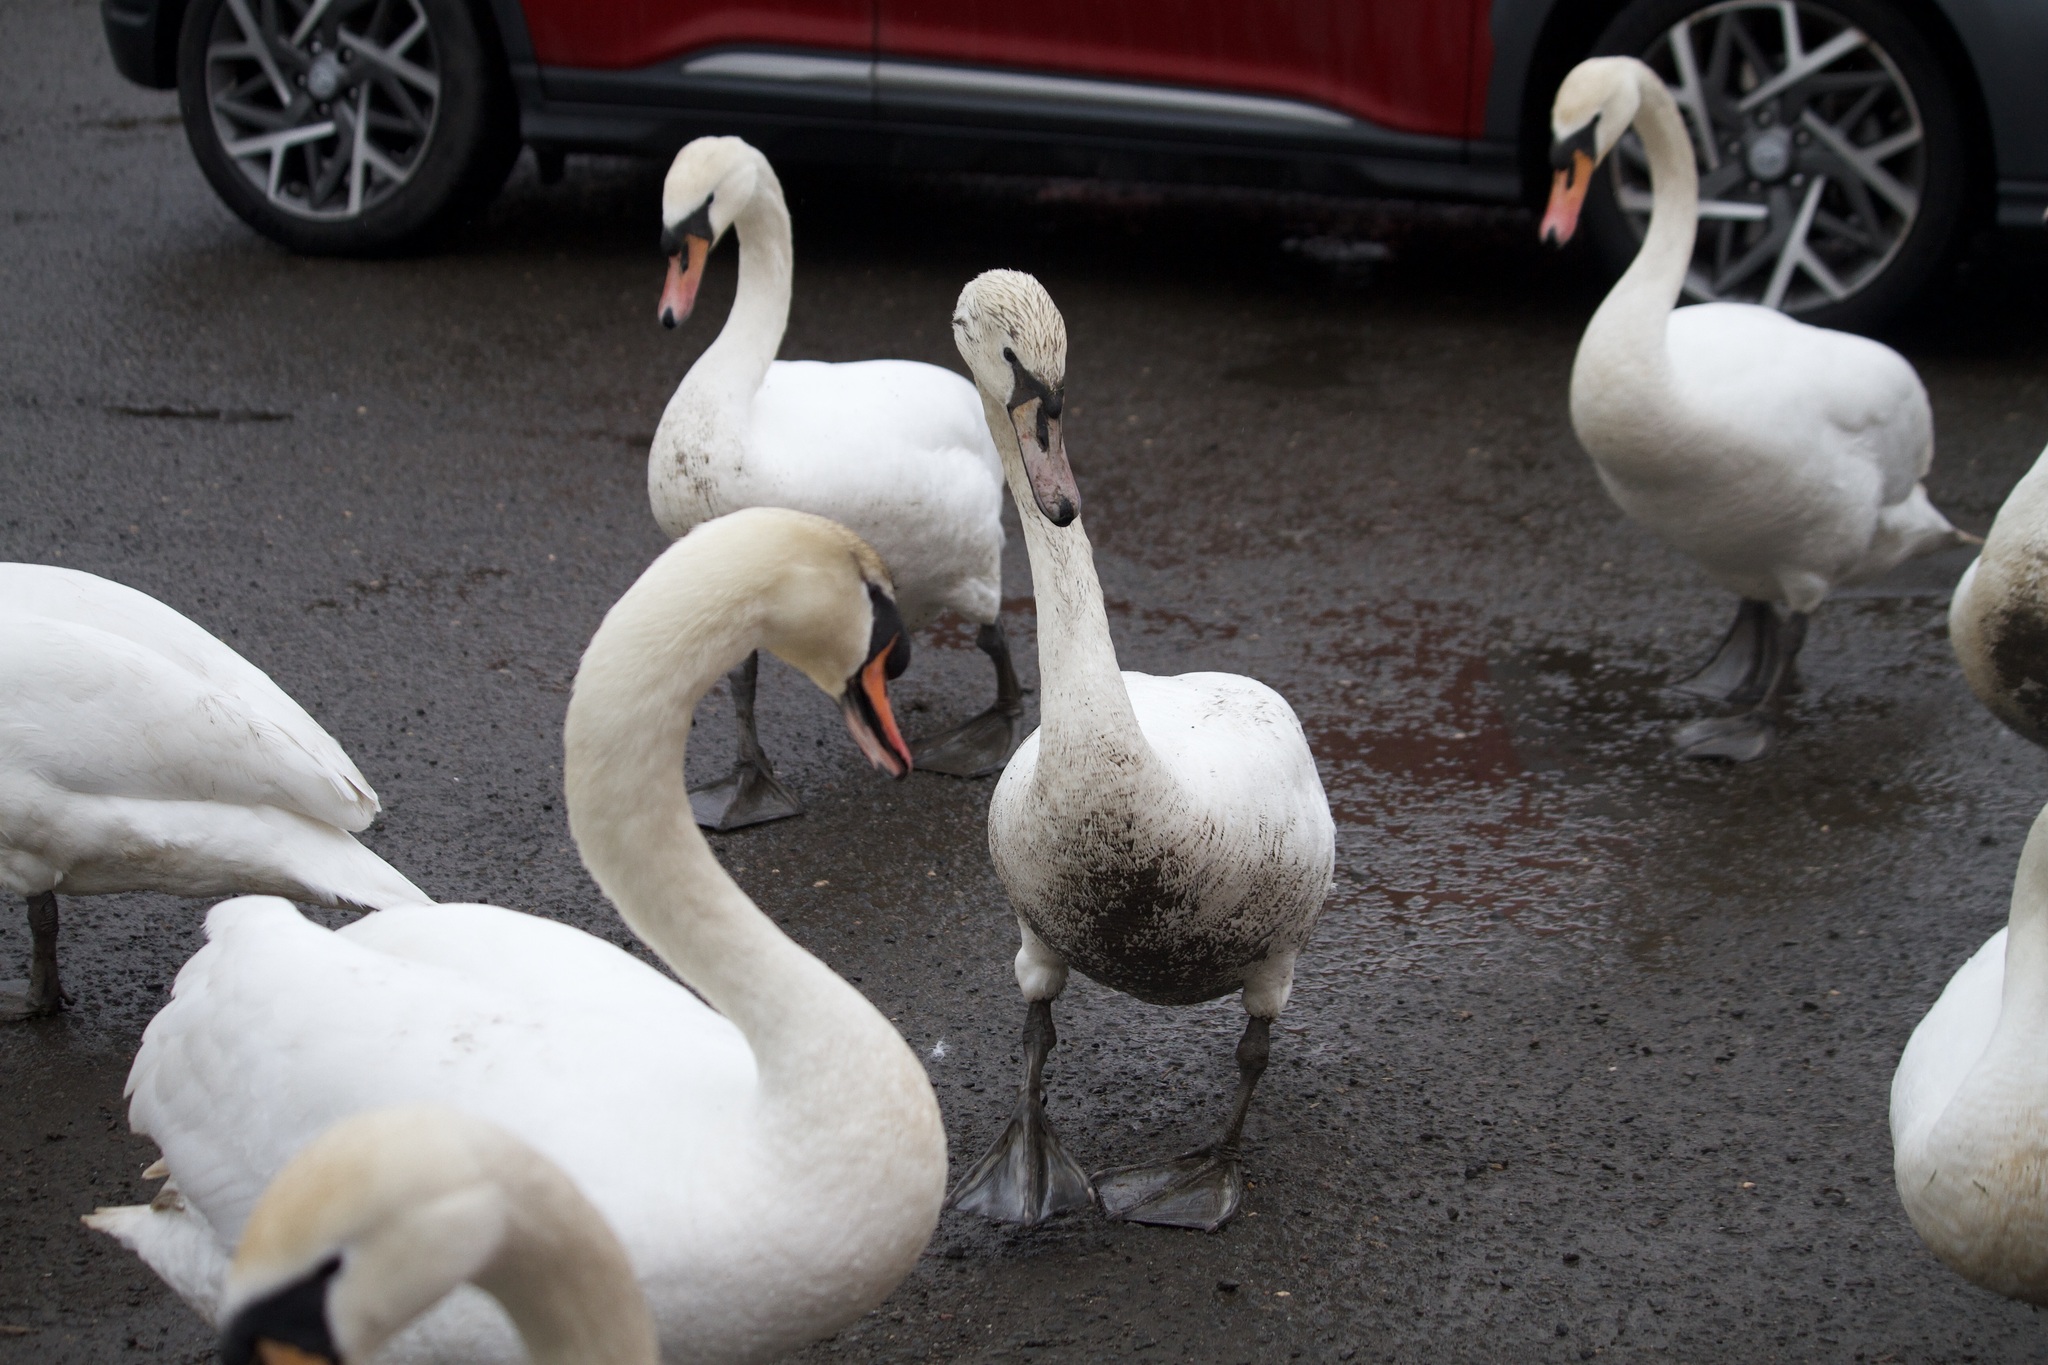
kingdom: Animalia
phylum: Chordata
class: Aves
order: Anseriformes
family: Anatidae
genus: Cygnus
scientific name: Cygnus olor
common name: Mute swan
